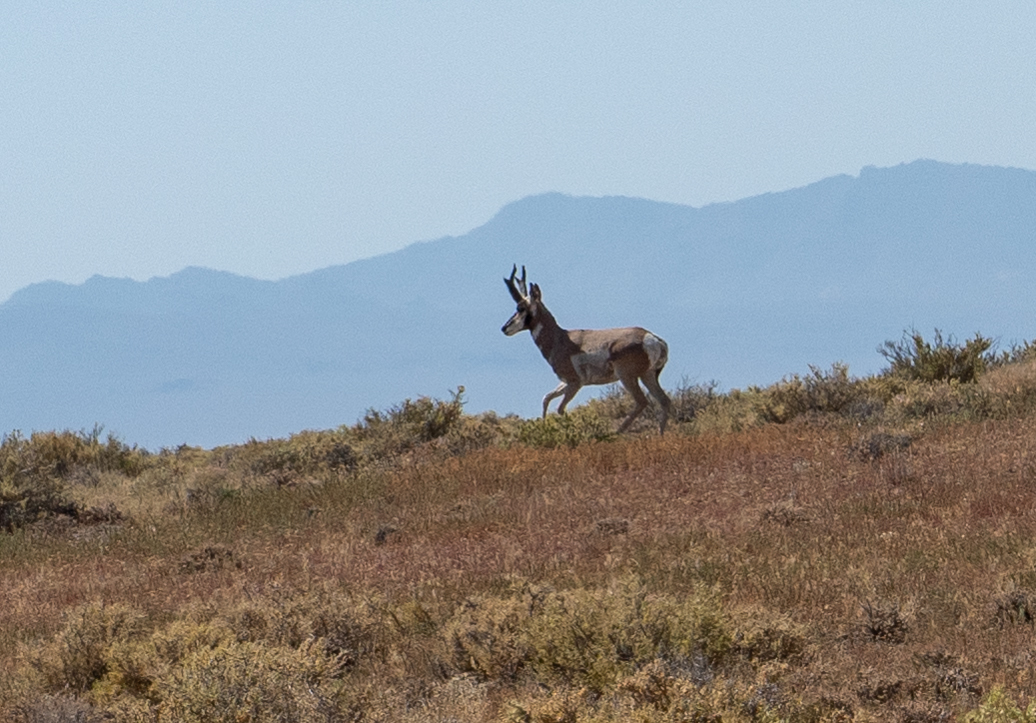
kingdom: Animalia
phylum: Chordata
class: Mammalia
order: Artiodactyla
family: Antilocapridae
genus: Antilocapra
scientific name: Antilocapra americana
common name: Pronghorn
